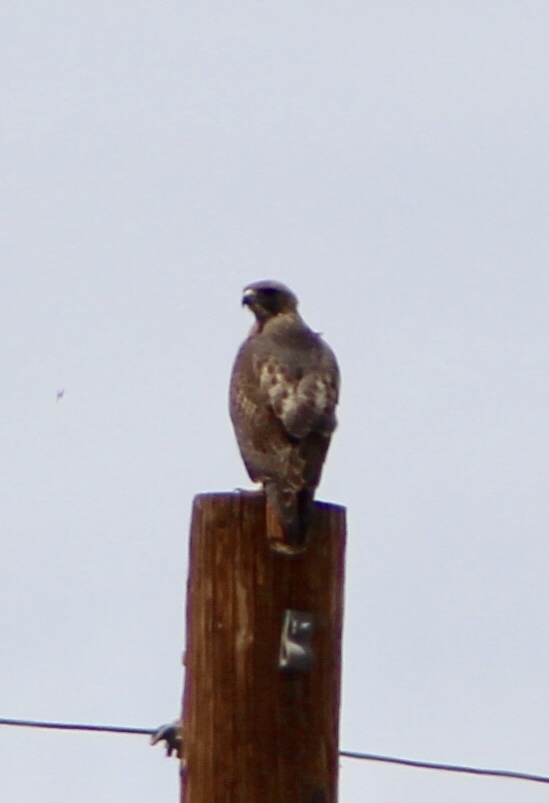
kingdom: Animalia
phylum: Chordata
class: Aves
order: Accipitriformes
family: Accipitridae
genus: Buteo
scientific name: Buteo jamaicensis
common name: Red-tailed hawk
